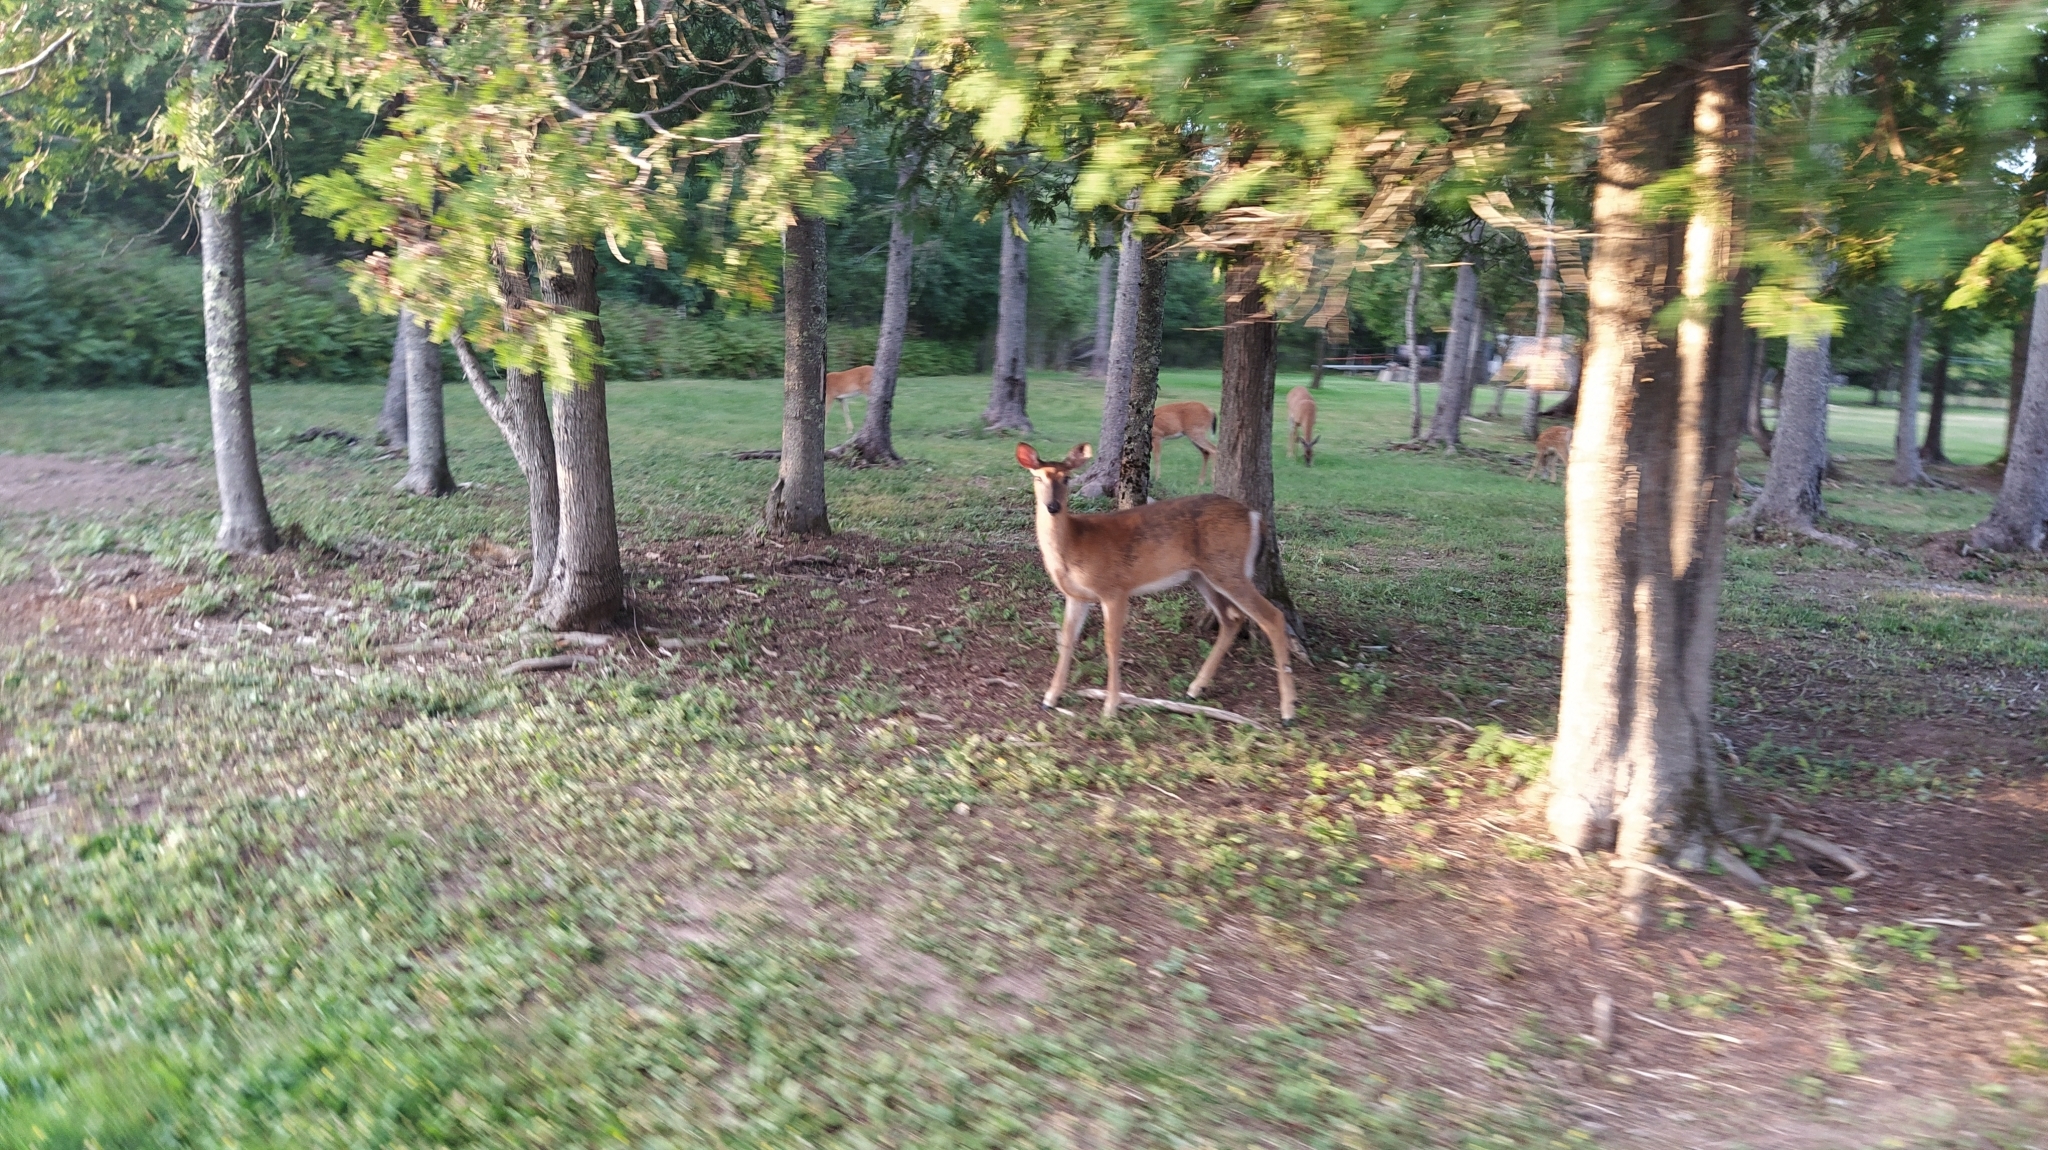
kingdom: Animalia
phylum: Chordata
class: Mammalia
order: Artiodactyla
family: Cervidae
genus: Odocoileus
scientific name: Odocoileus virginianus
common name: White-tailed deer
